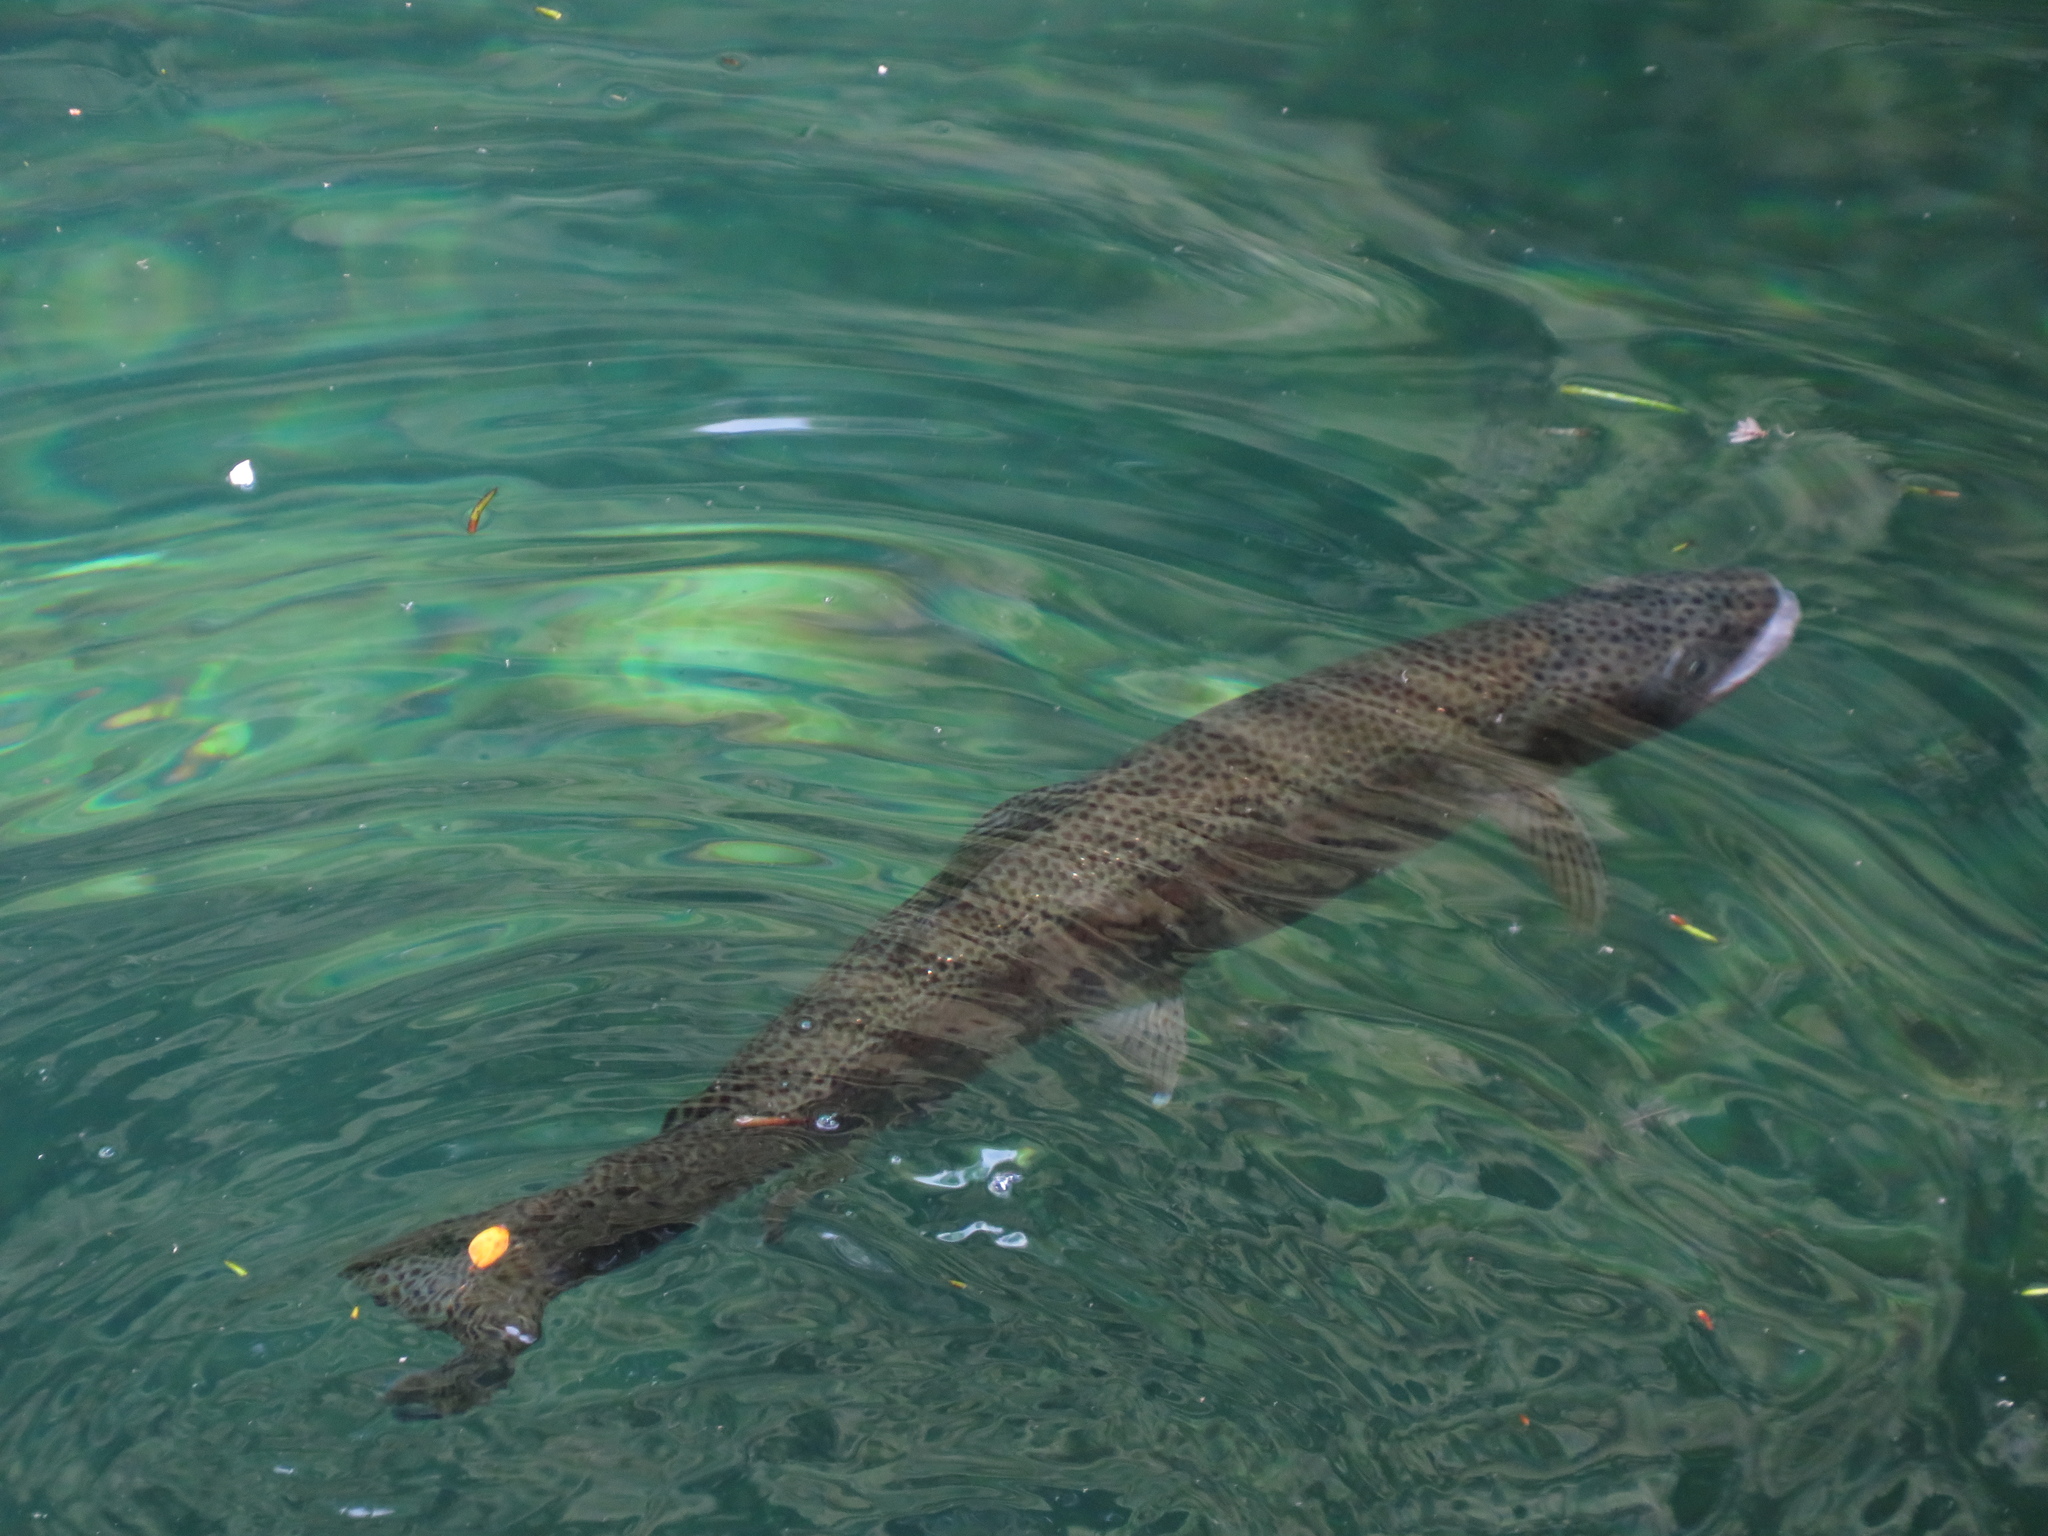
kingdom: Animalia
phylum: Chordata
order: Salmoniformes
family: Salmonidae
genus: Oncorhynchus
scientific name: Oncorhynchus mykiss
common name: Rainbow trout
